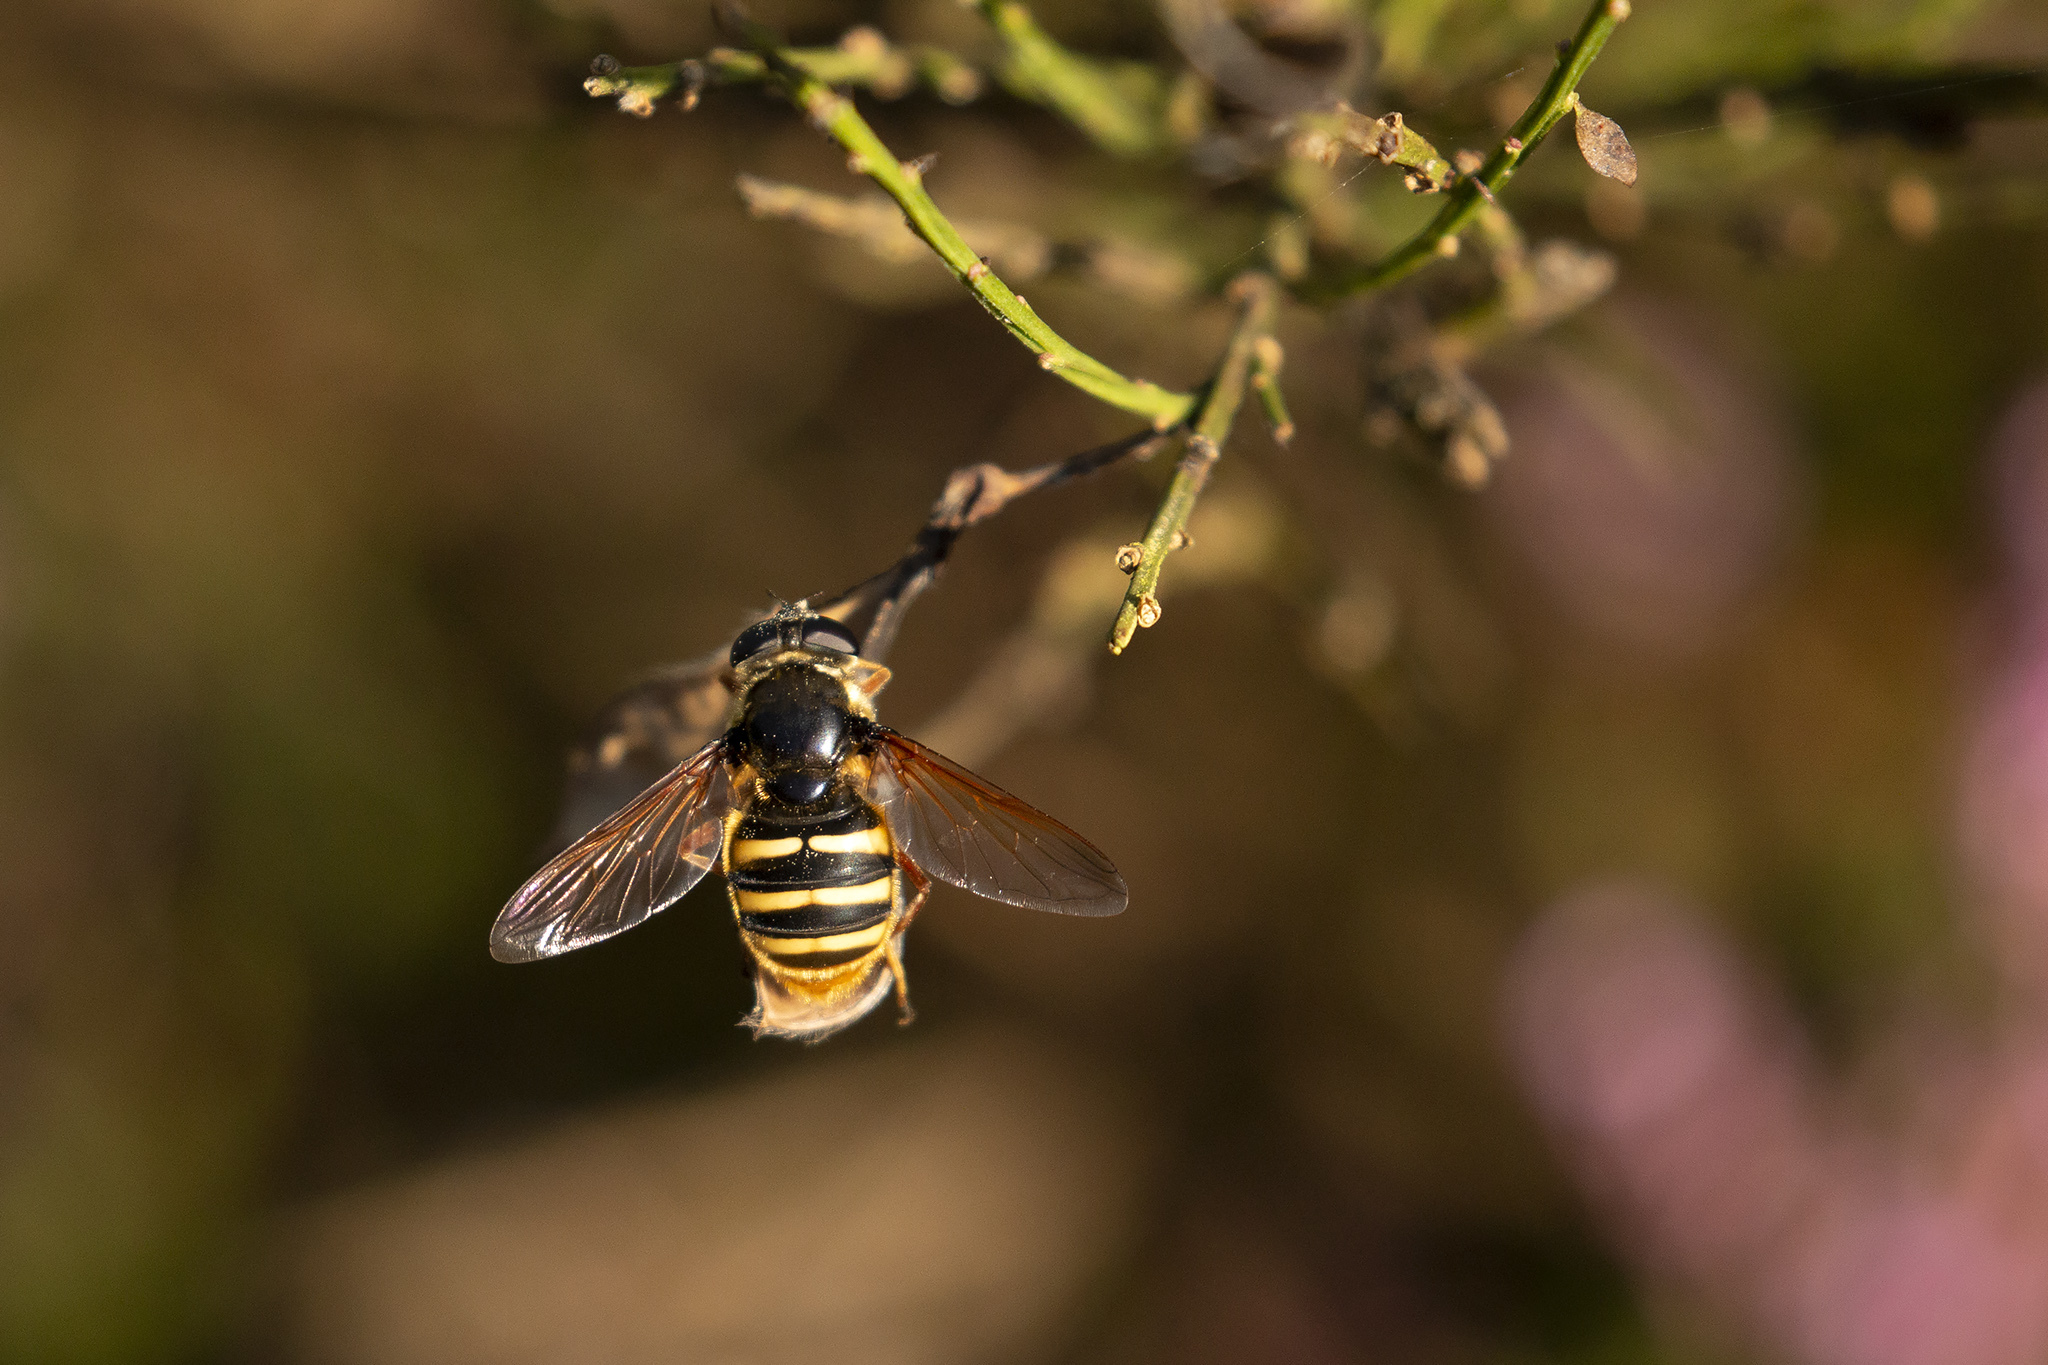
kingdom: Animalia
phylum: Arthropoda
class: Insecta
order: Diptera
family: Syrphidae
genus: Sericomyia
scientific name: Sericomyia silentis
